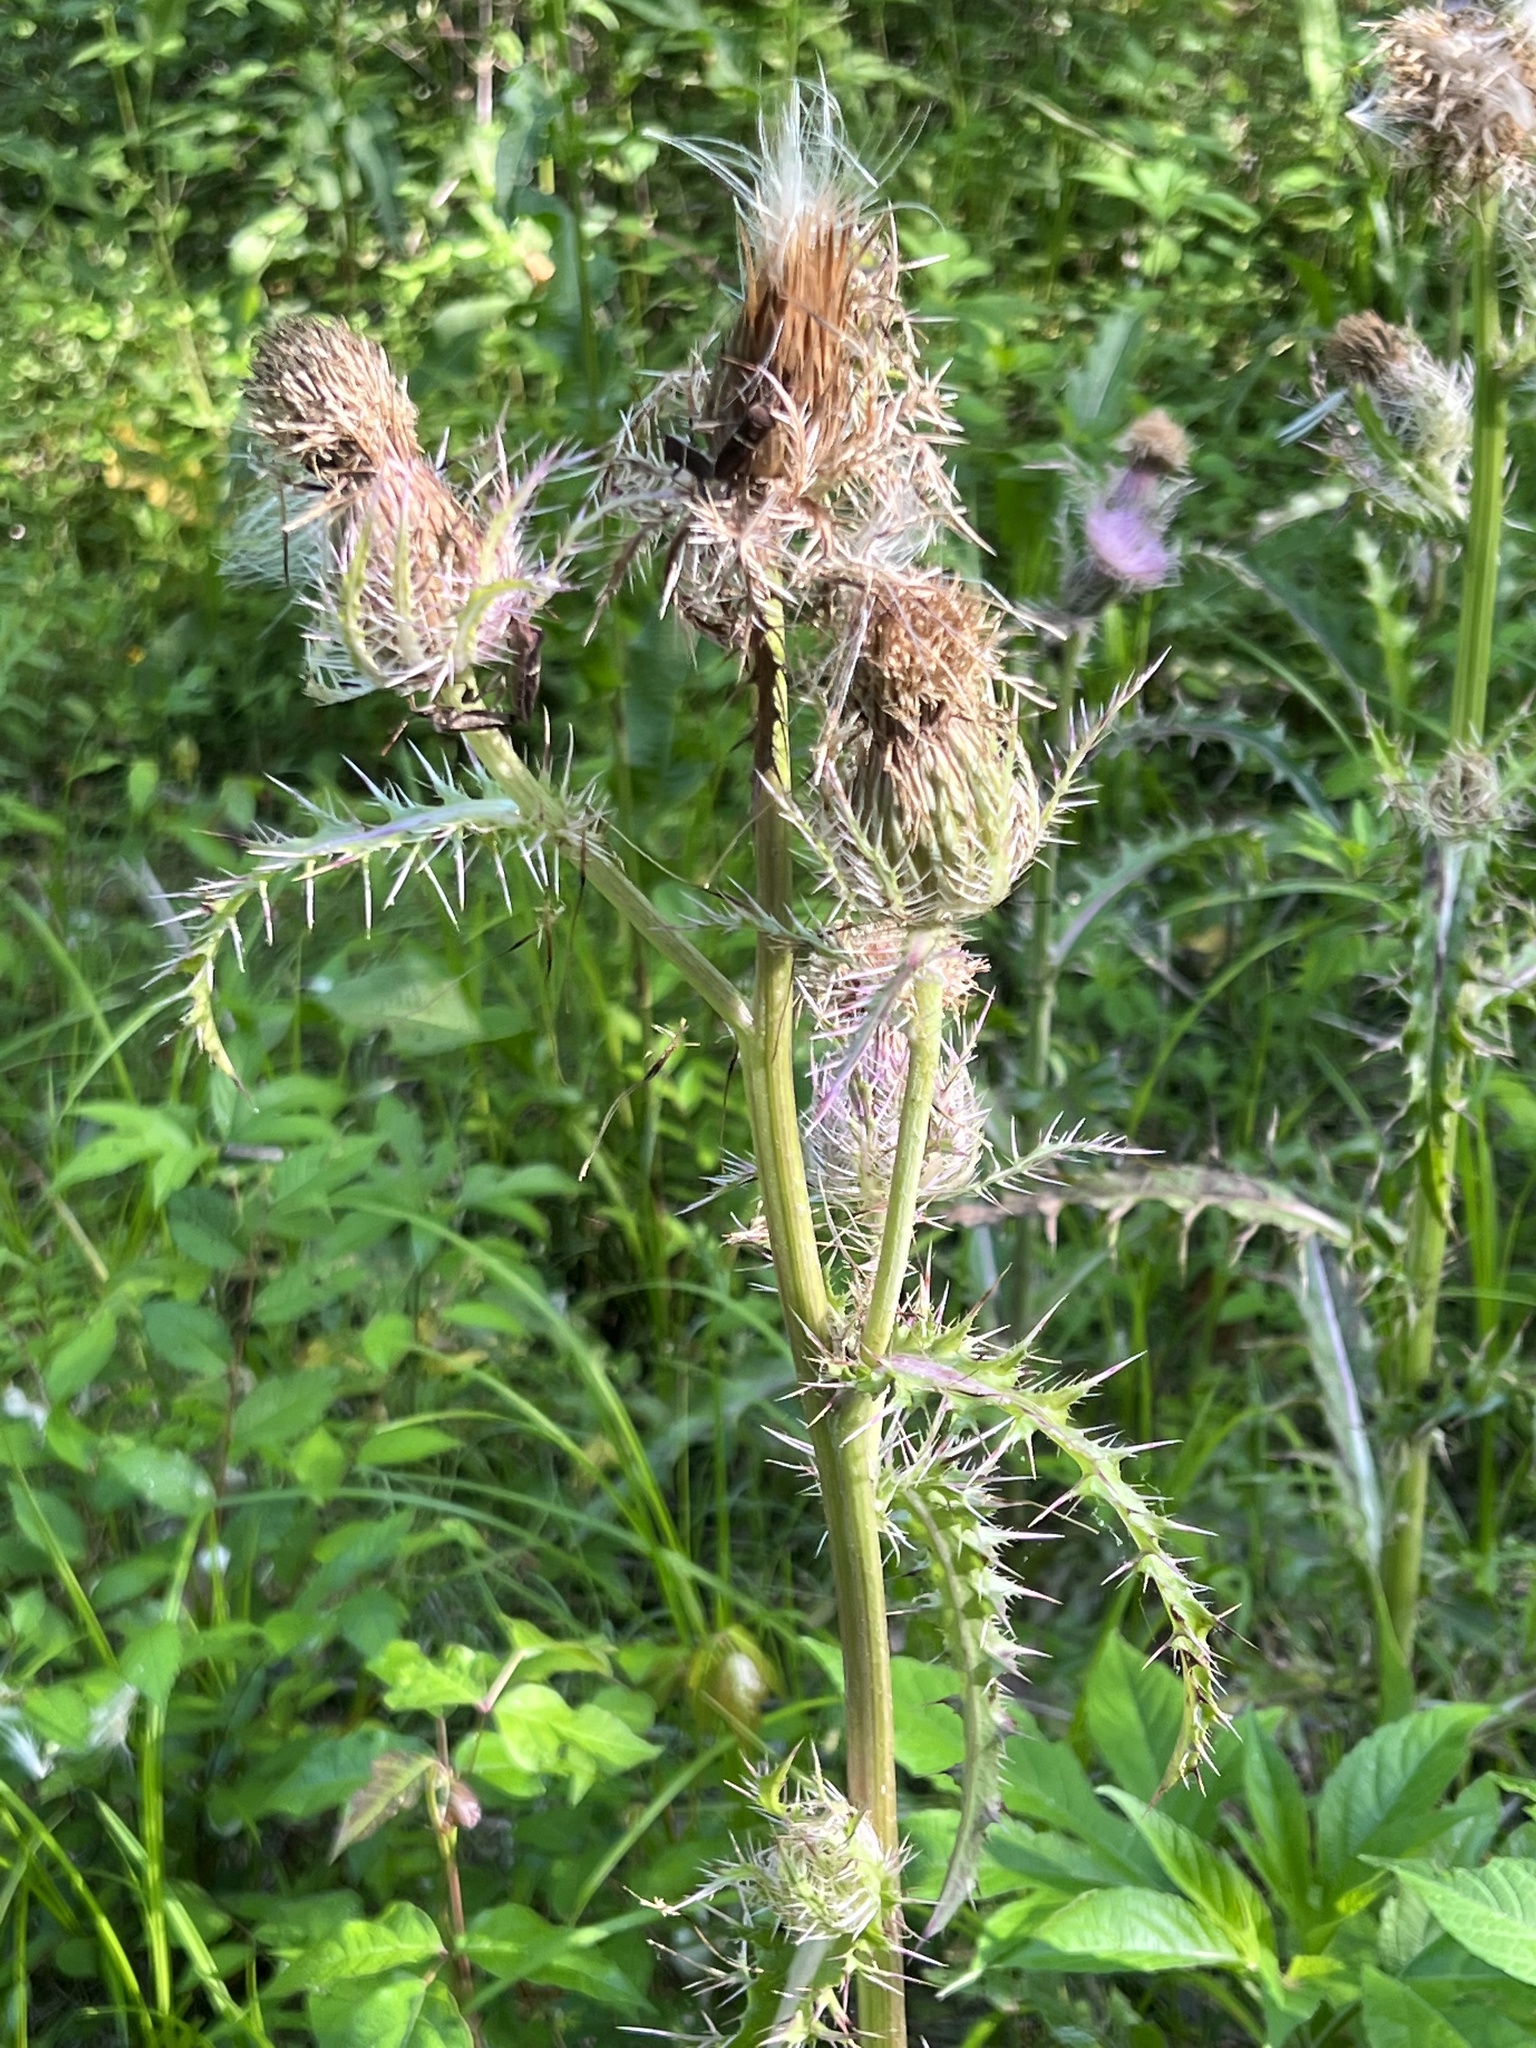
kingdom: Plantae
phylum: Tracheophyta
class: Magnoliopsida
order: Asterales
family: Asteraceae
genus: Cirsium
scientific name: Cirsium horridulum
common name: Bristly thistle
